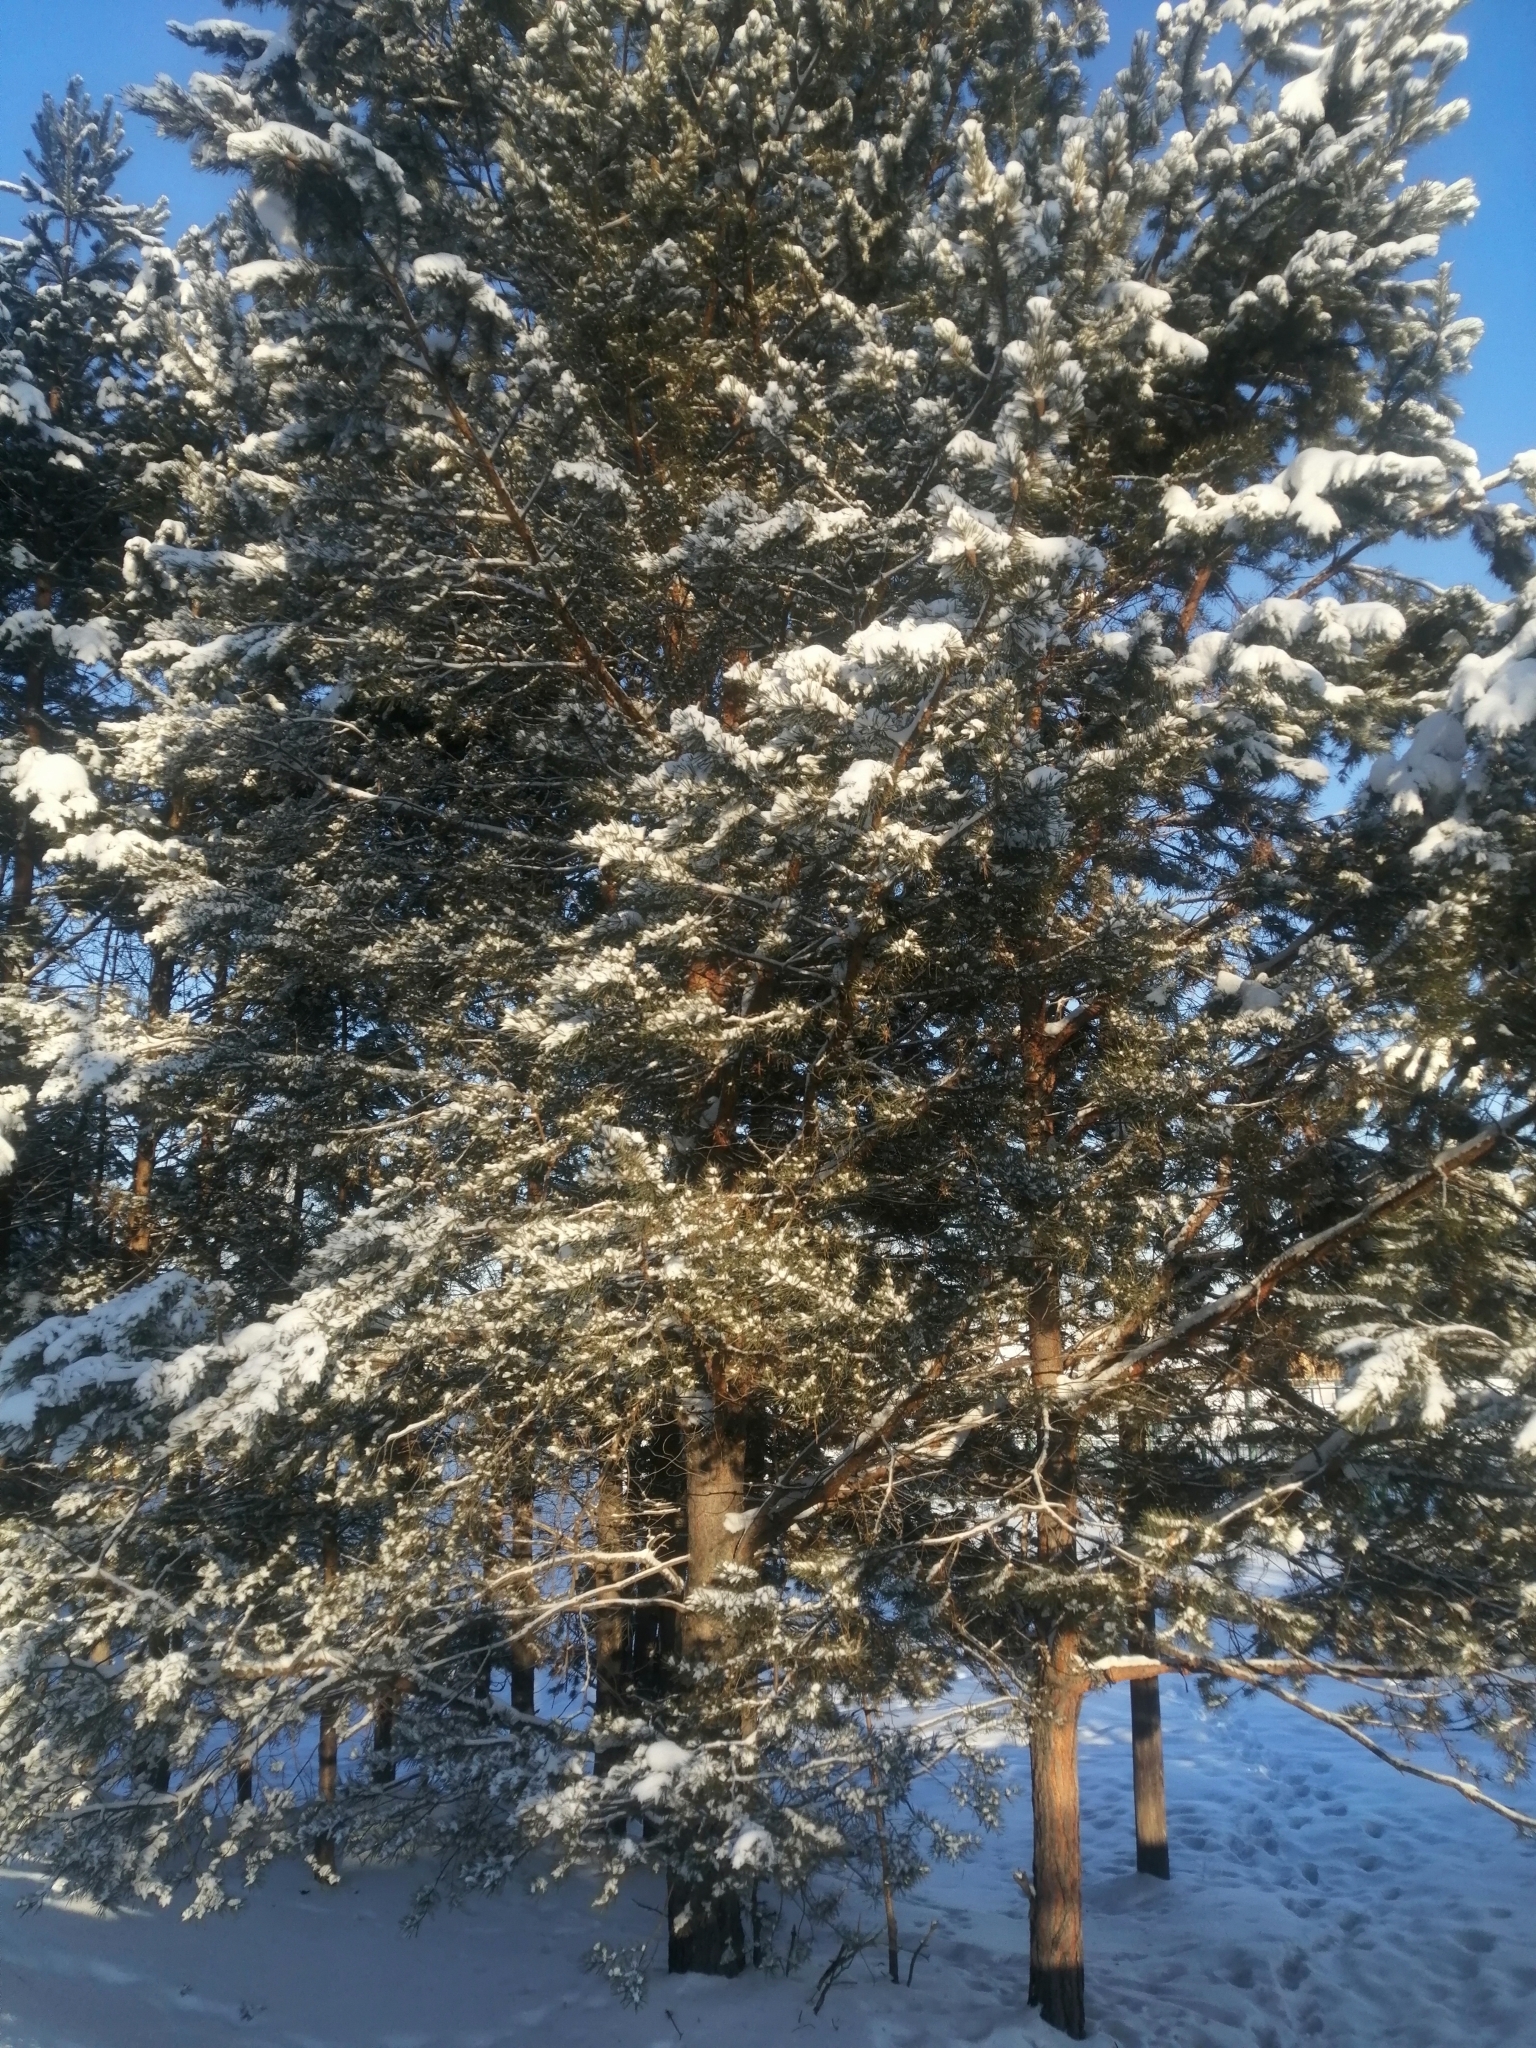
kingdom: Plantae
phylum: Tracheophyta
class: Pinopsida
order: Pinales
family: Pinaceae
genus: Pinus
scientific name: Pinus sylvestris
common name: Scots pine
